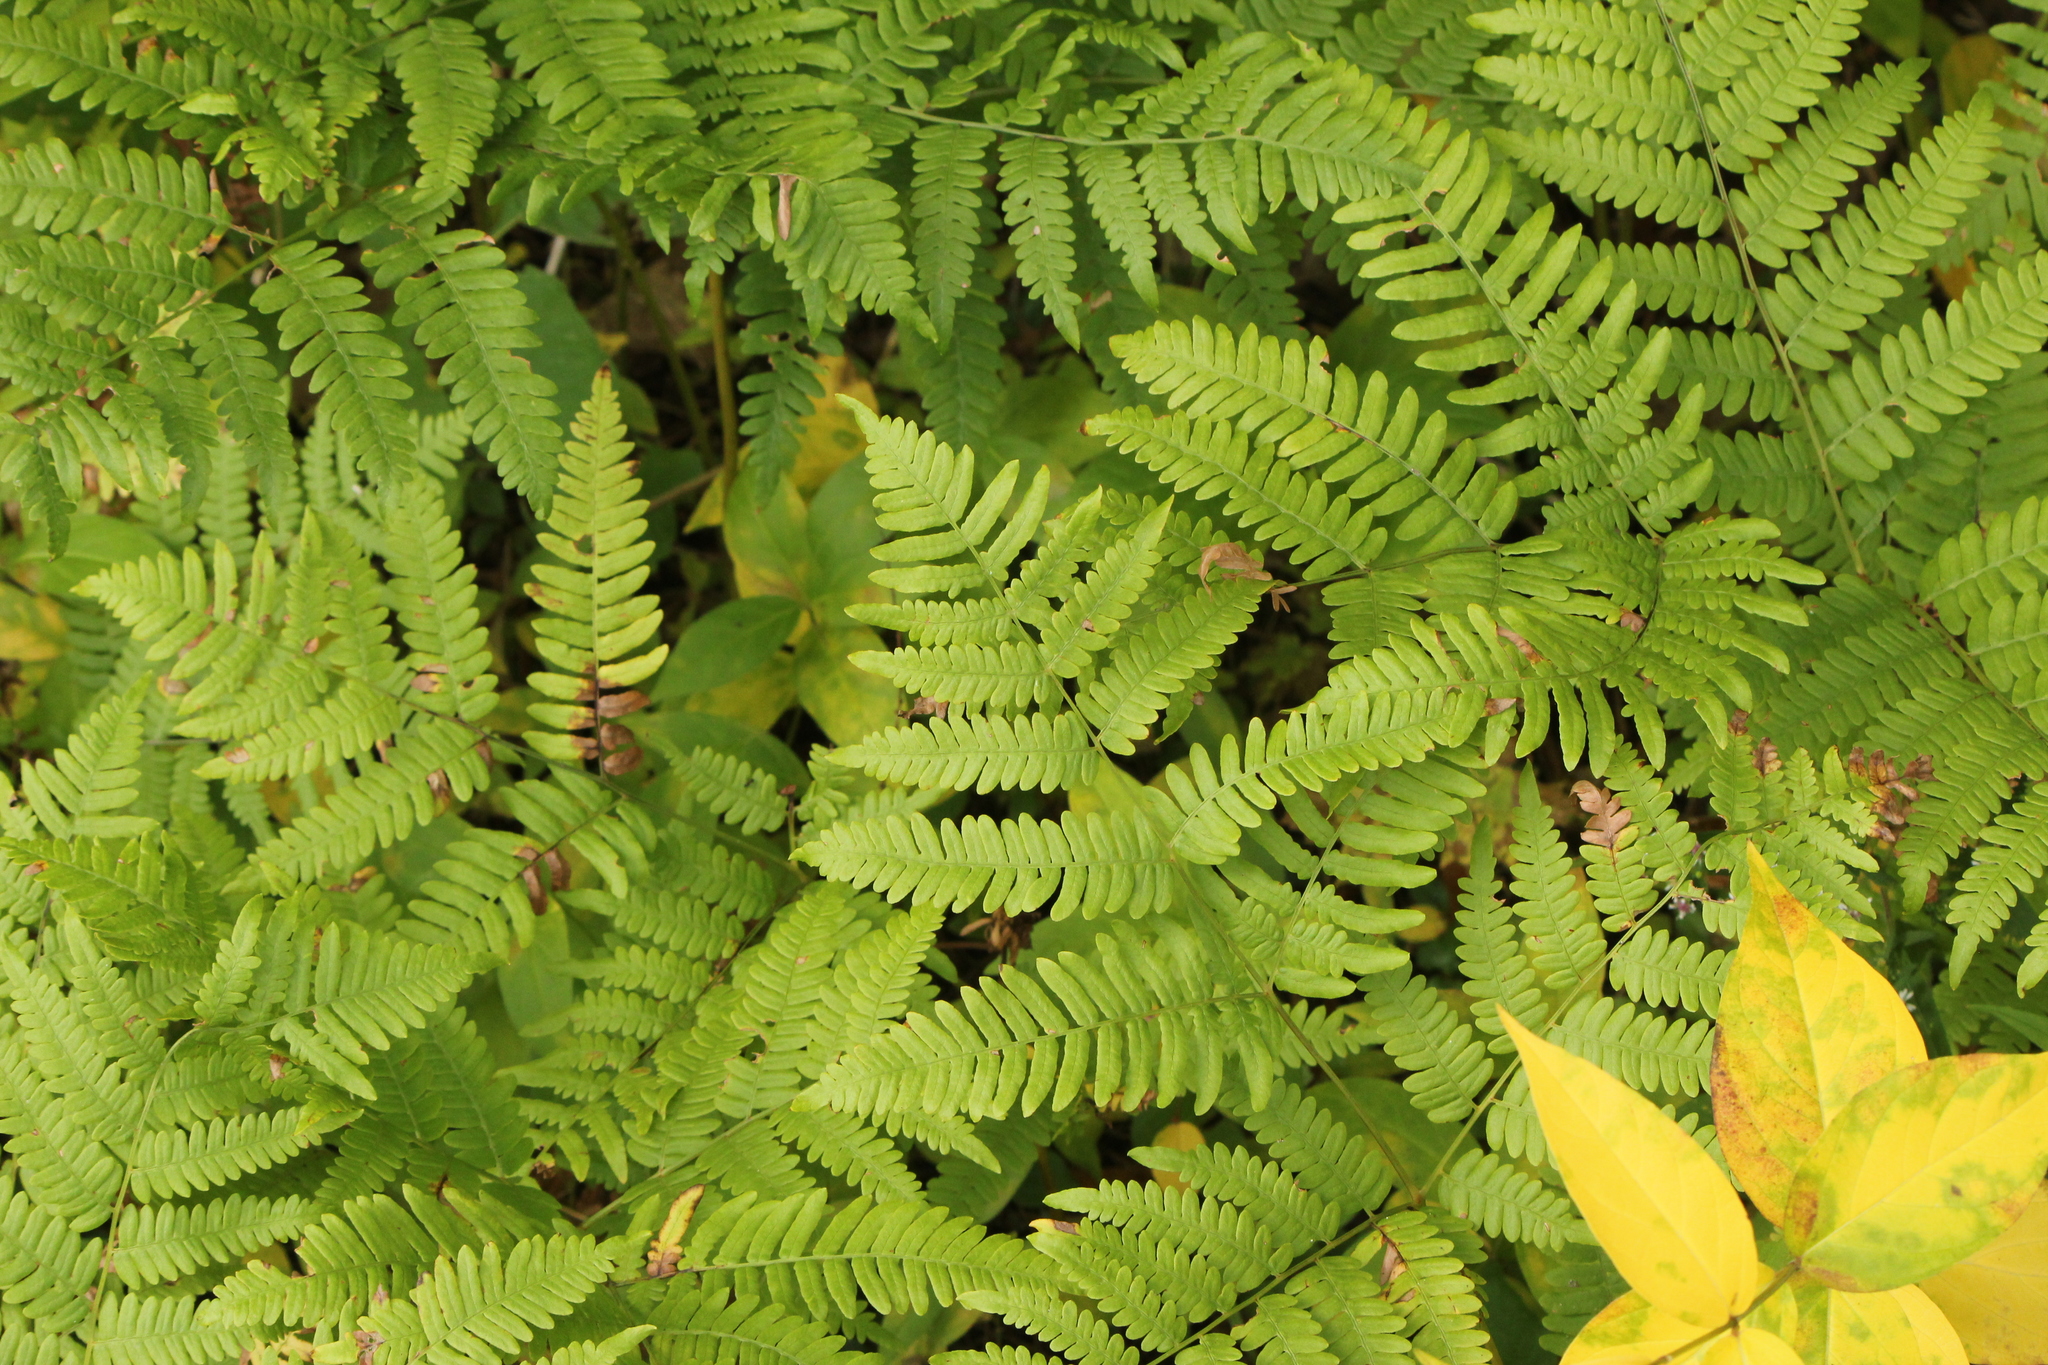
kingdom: Plantae
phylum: Tracheophyta
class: Polypodiopsida
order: Polypodiales
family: Dennstaedtiaceae
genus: Pteridium
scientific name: Pteridium aquilinum
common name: Bracken
